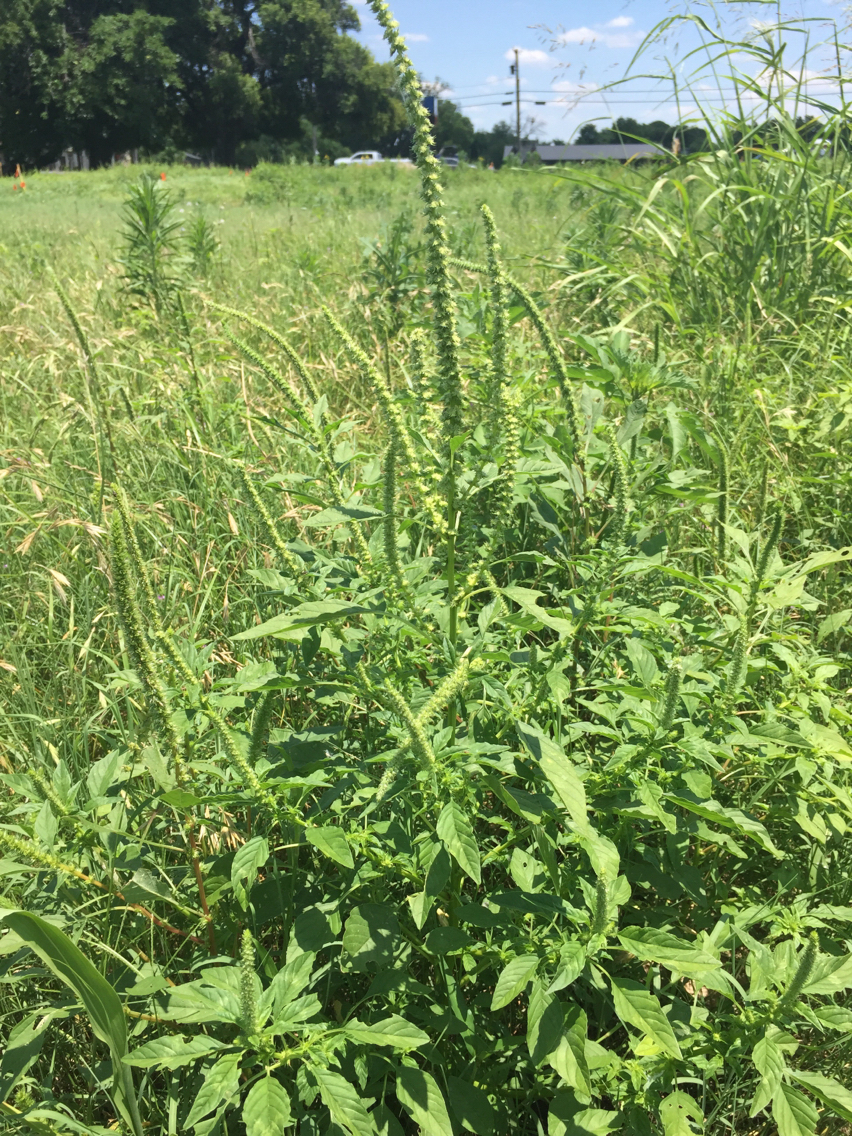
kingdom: Plantae
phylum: Tracheophyta
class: Magnoliopsida
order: Caryophyllales
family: Amaranthaceae
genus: Amaranthus
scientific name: Amaranthus palmeri
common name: Dioecious amaranth
